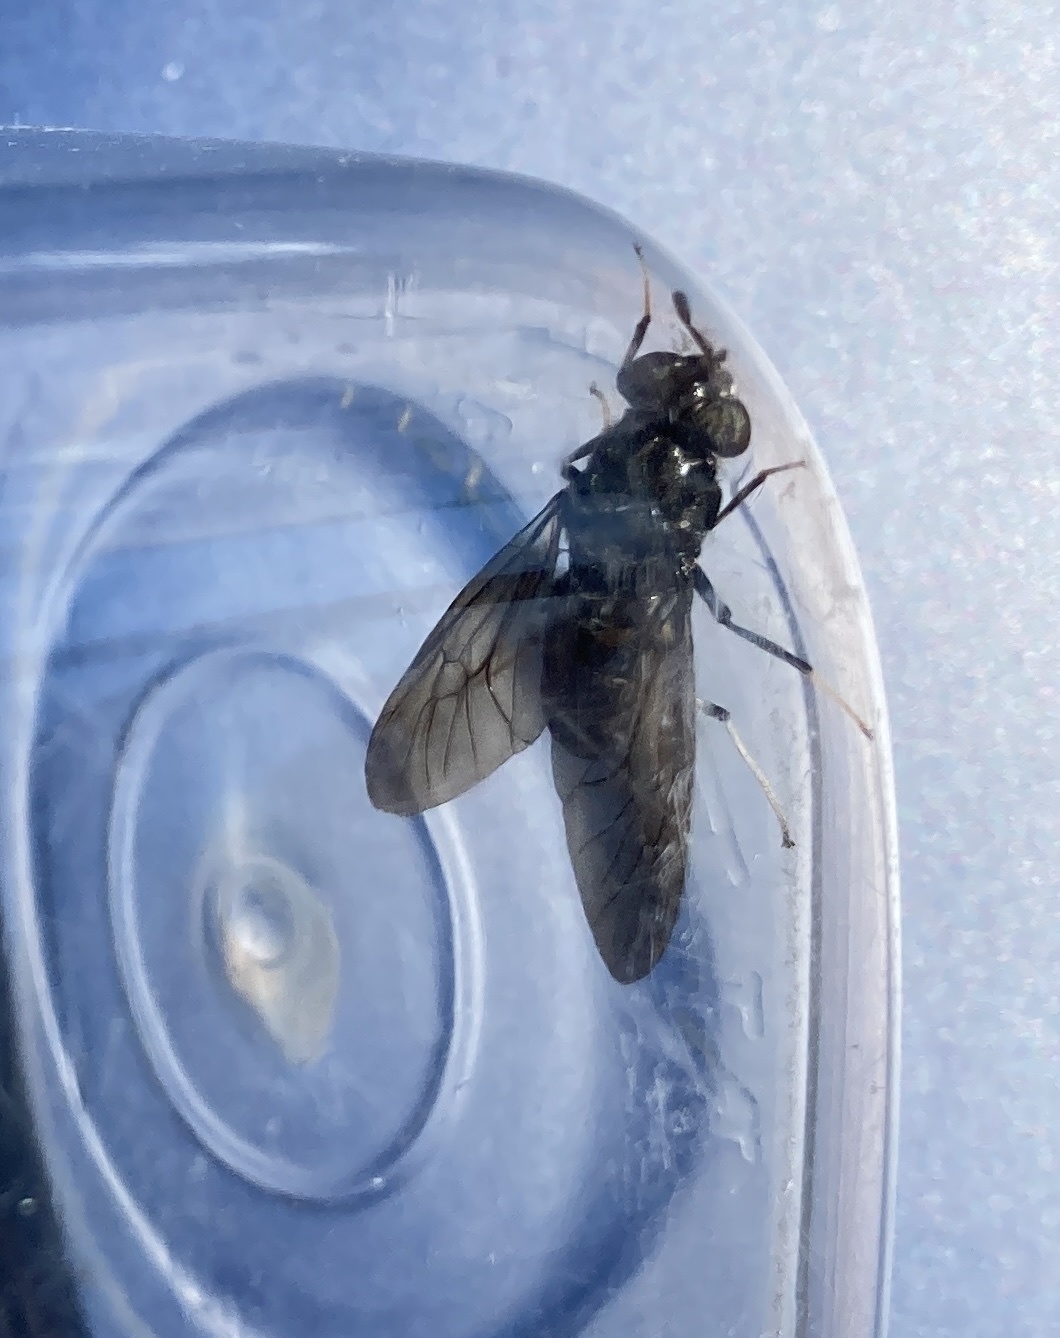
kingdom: Animalia
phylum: Arthropoda
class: Insecta
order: Diptera
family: Stratiomyidae
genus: Hermetia
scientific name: Hermetia illucens
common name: Black soldier fly
